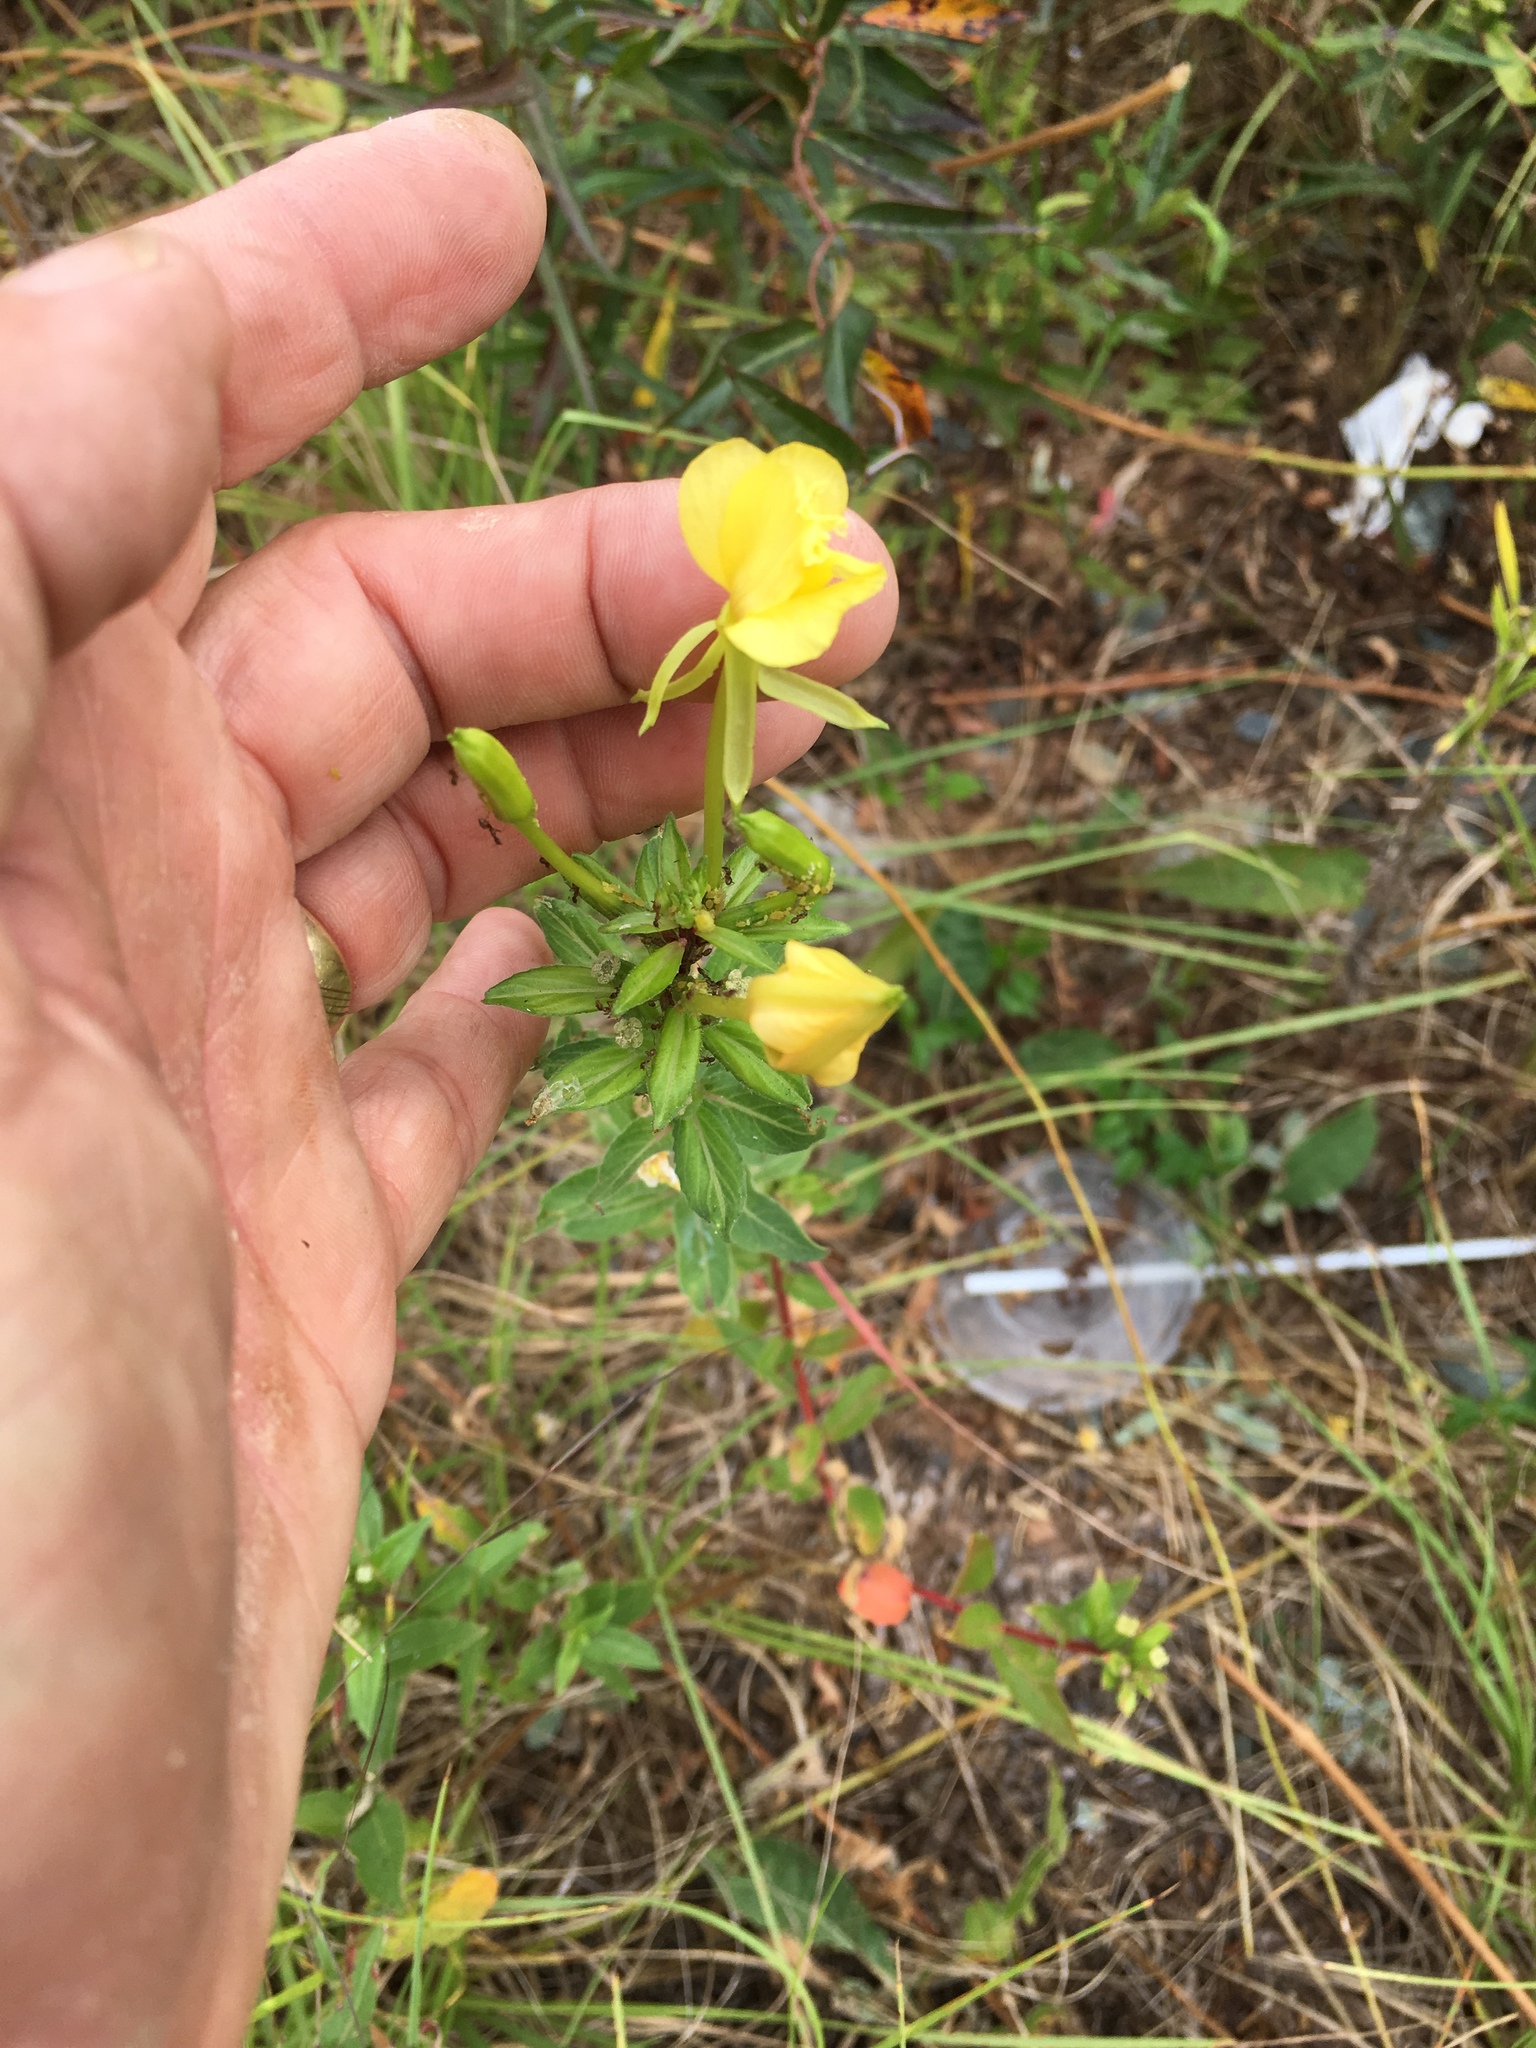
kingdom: Plantae
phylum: Tracheophyta
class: Magnoliopsida
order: Myrtales
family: Onagraceae
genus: Oenothera
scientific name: Oenothera biennis
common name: Common evening-primrose
